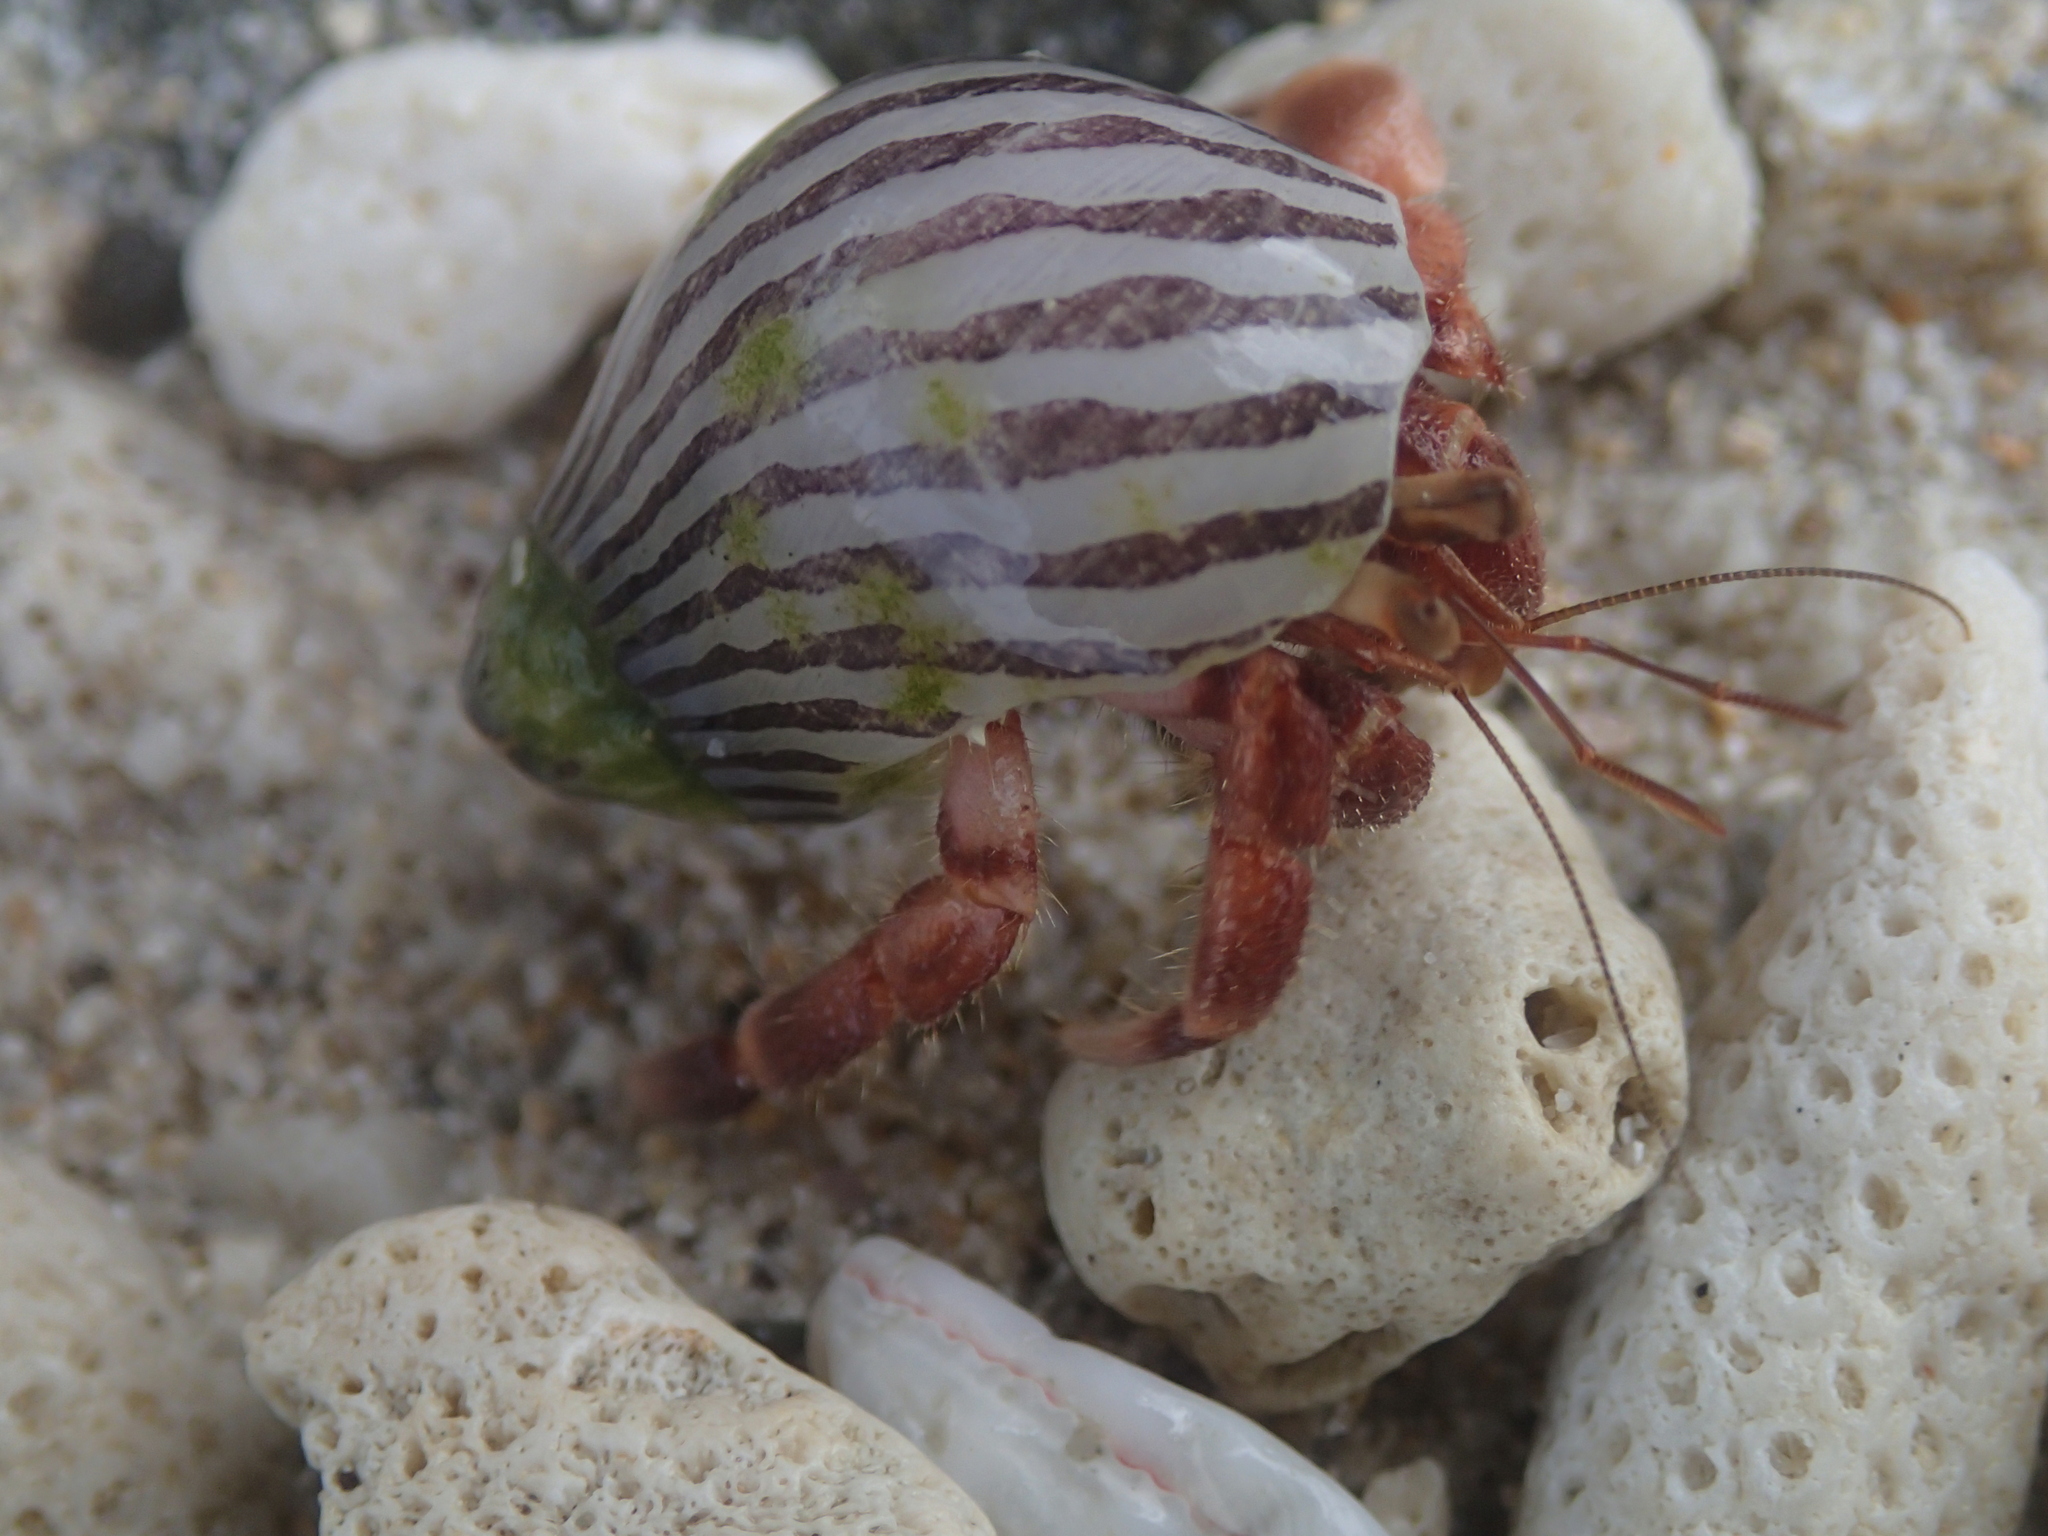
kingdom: Animalia
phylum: Arthropoda
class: Malacostraca
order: Decapoda
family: Coenobitidae
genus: Coenobita
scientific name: Coenobita rugosus
